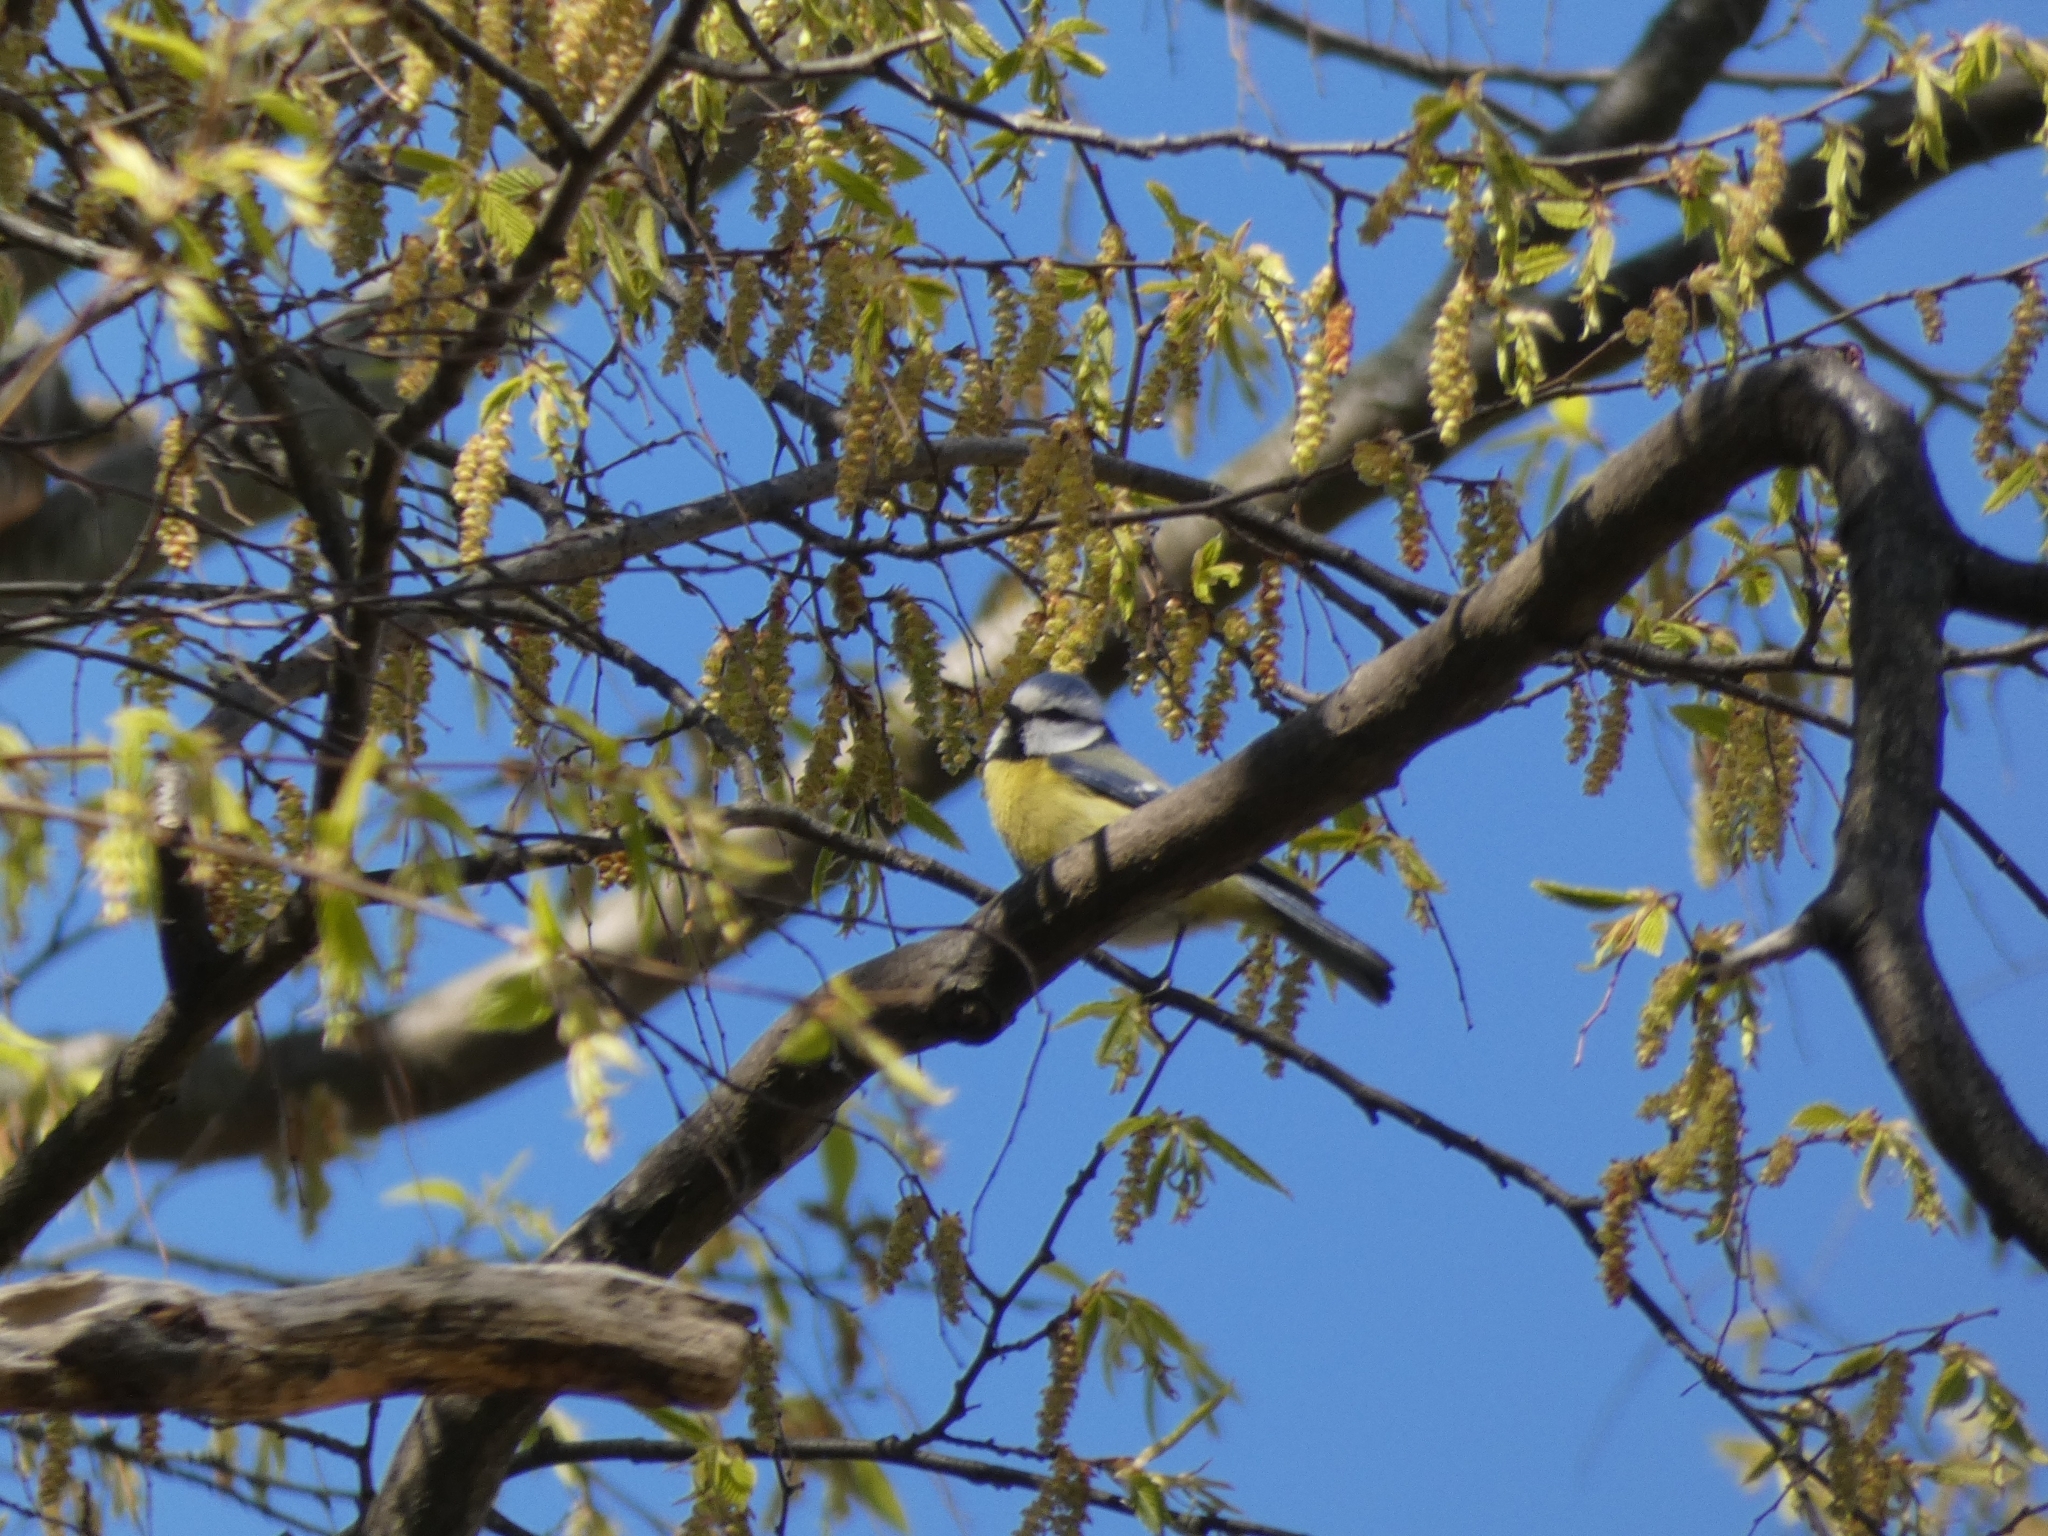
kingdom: Animalia
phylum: Chordata
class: Aves
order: Passeriformes
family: Paridae
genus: Cyanistes
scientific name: Cyanistes caeruleus
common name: Eurasian blue tit
